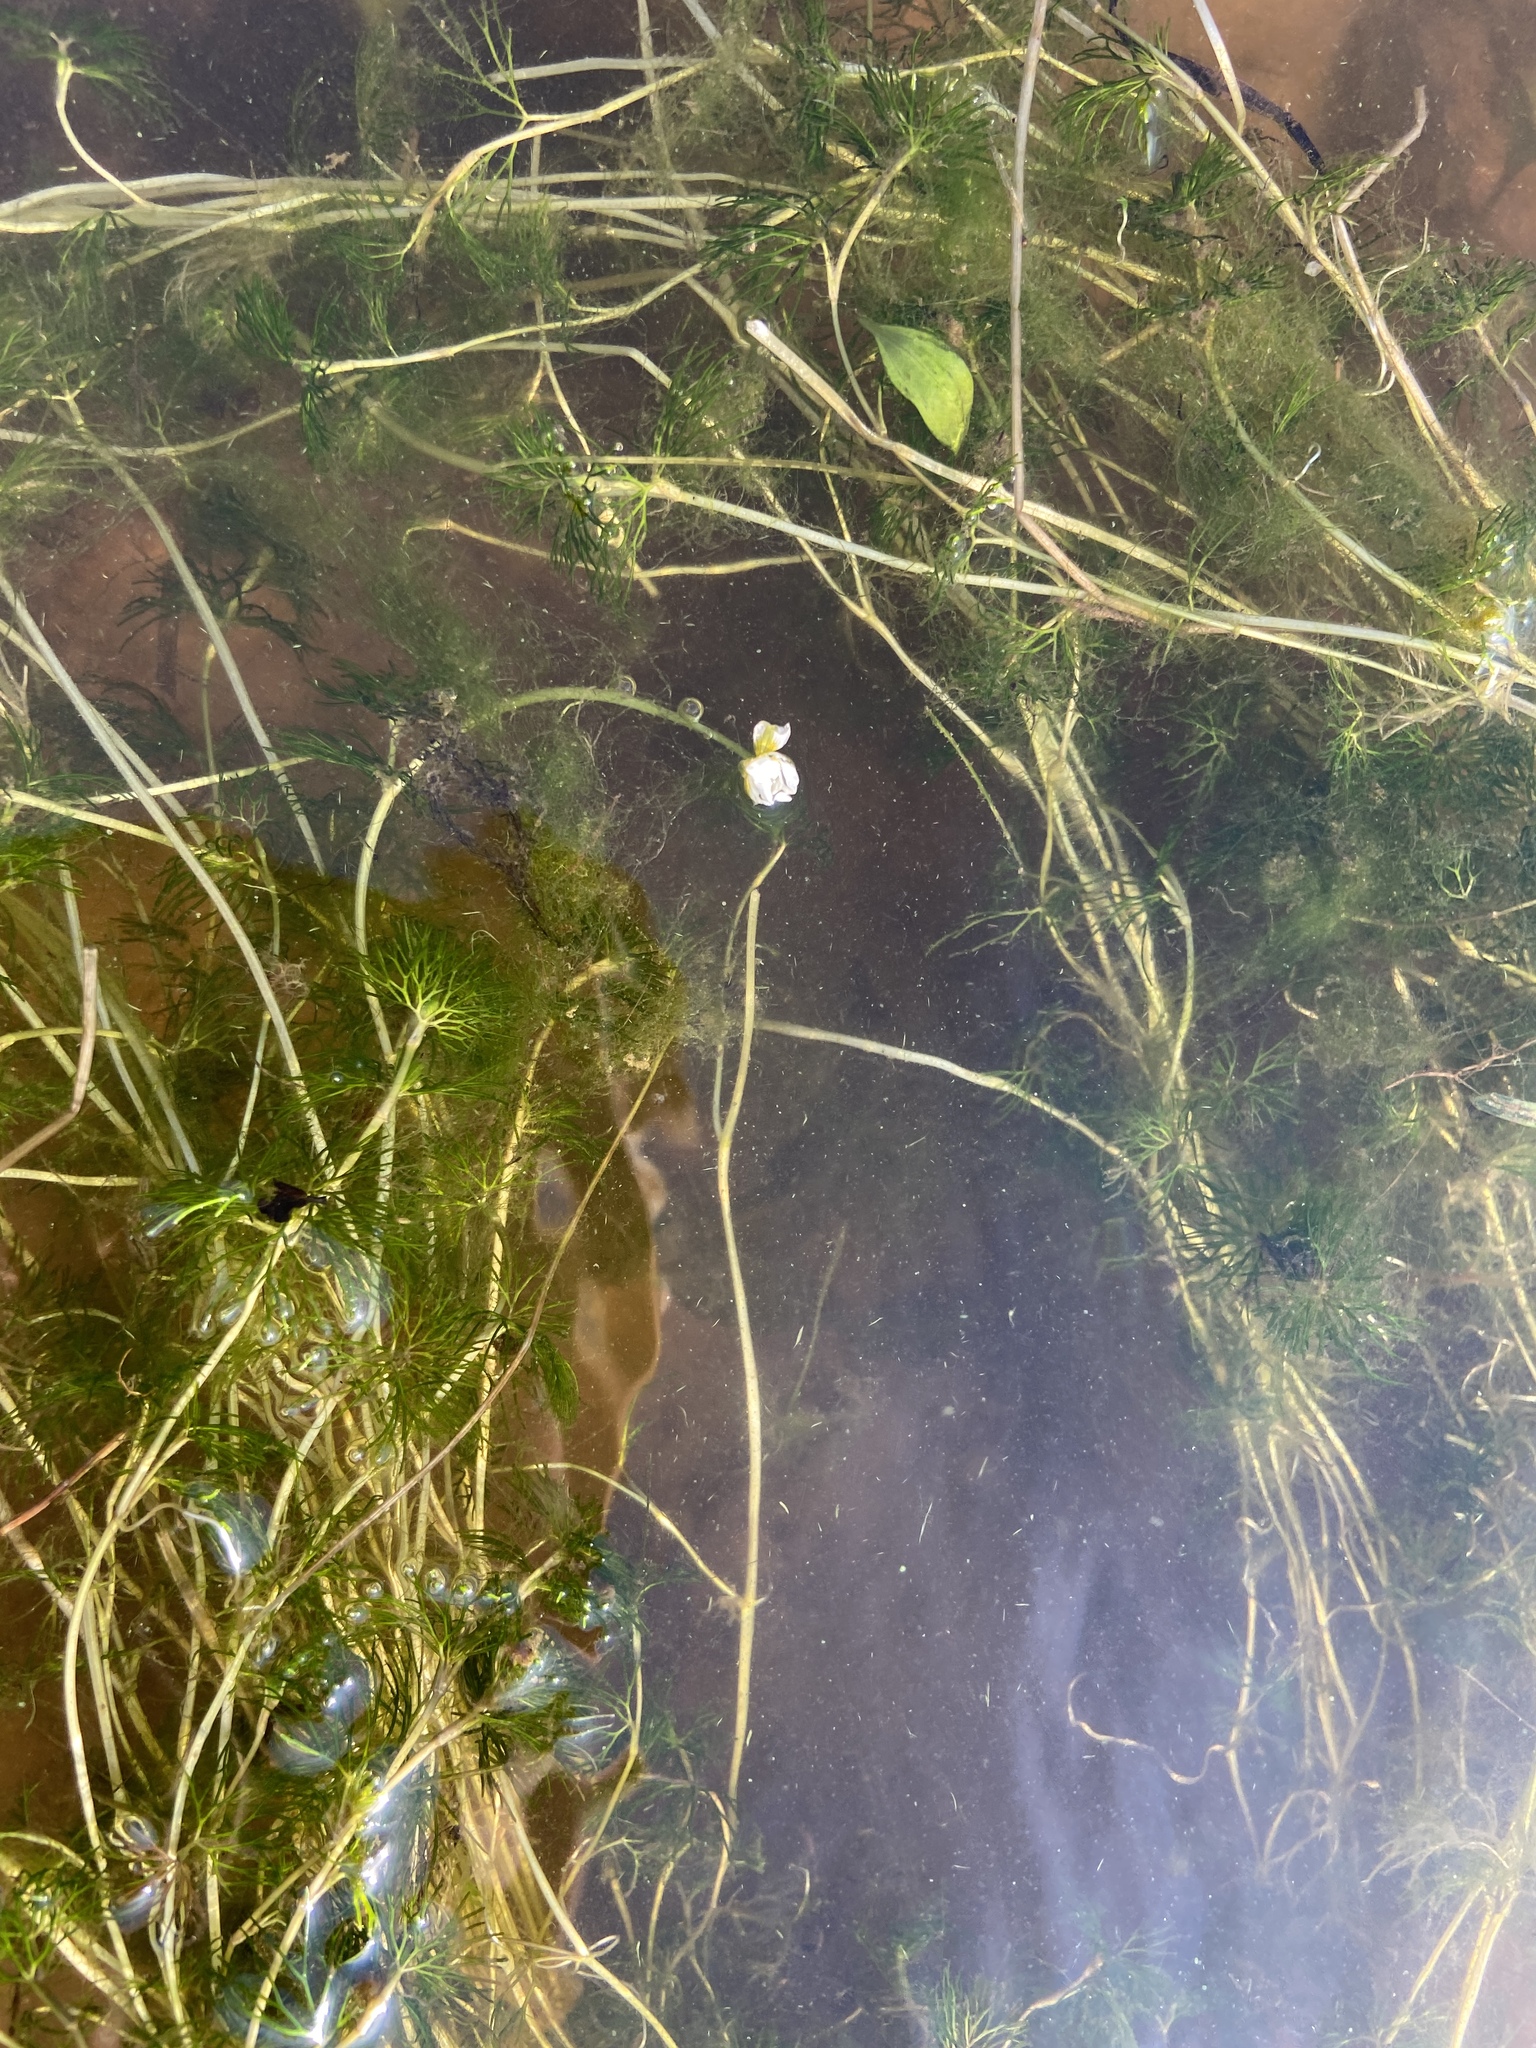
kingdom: Plantae
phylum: Tracheophyta
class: Magnoliopsida
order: Ranunculales
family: Ranunculaceae
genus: Ranunculus
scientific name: Ranunculus circinatus
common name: Fan-leaved water-crowfoot
